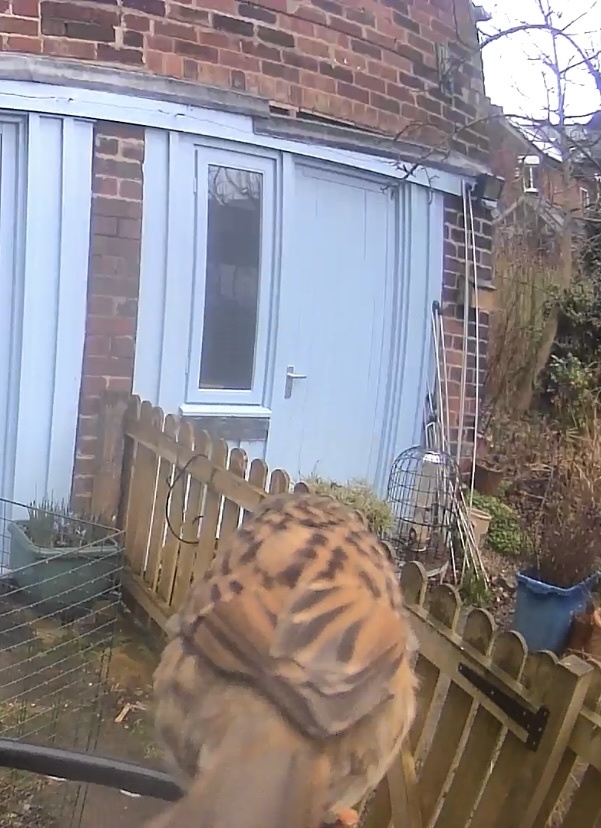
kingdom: Animalia
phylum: Chordata
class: Aves
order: Passeriformes
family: Prunellidae
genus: Prunella
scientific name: Prunella modularis
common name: Dunnock
